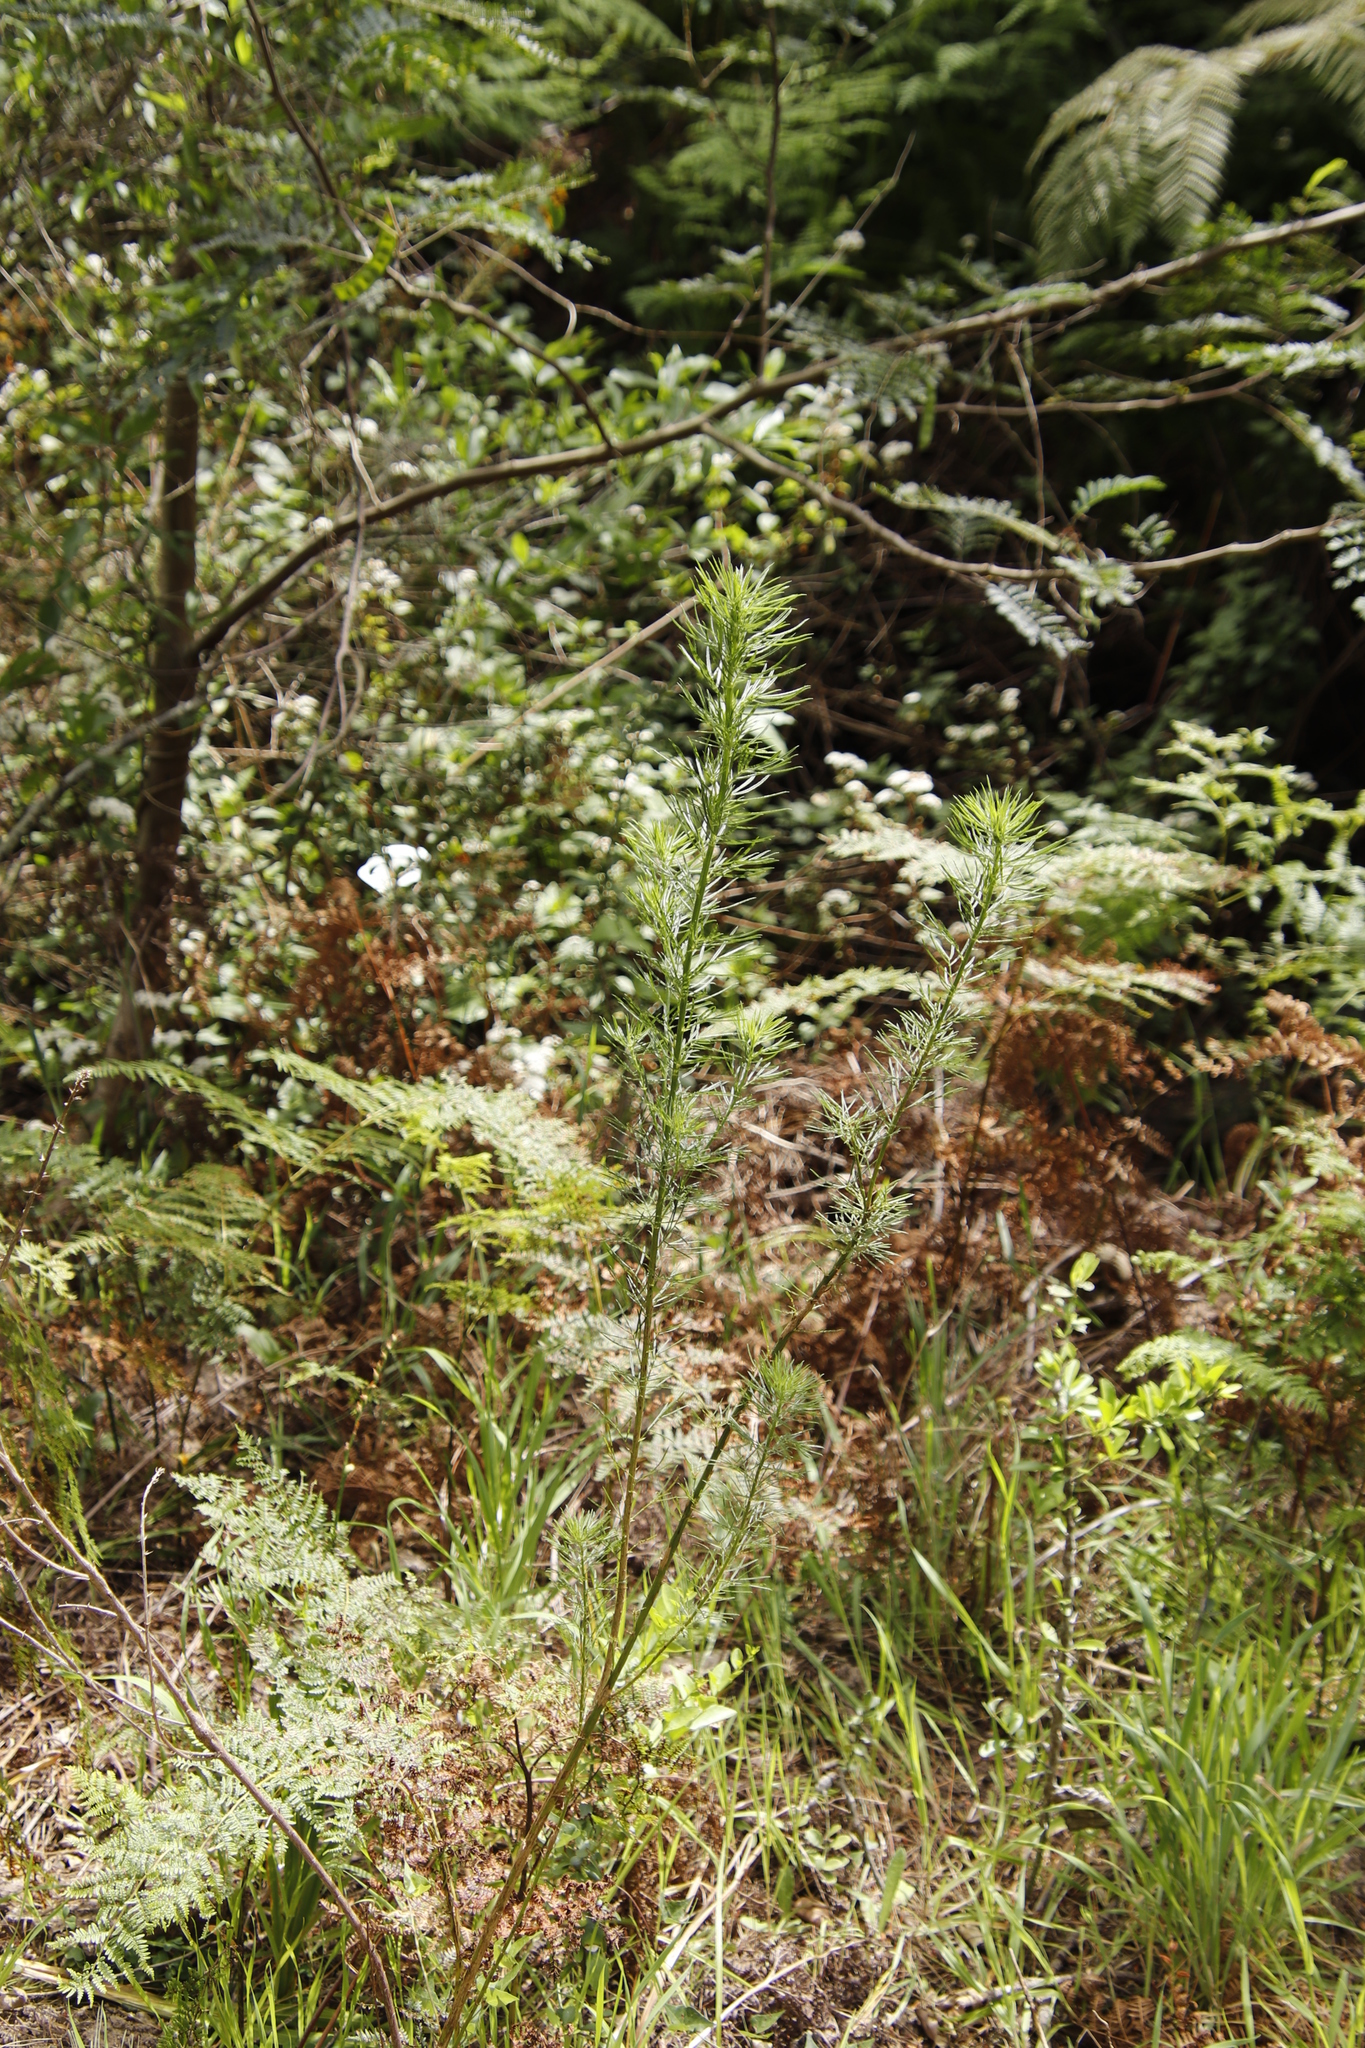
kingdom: Plantae
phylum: Tracheophyta
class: Magnoliopsida
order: Fabales
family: Fabaceae
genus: Psoralea
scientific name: Psoralea pinnata
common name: African scurfpea
